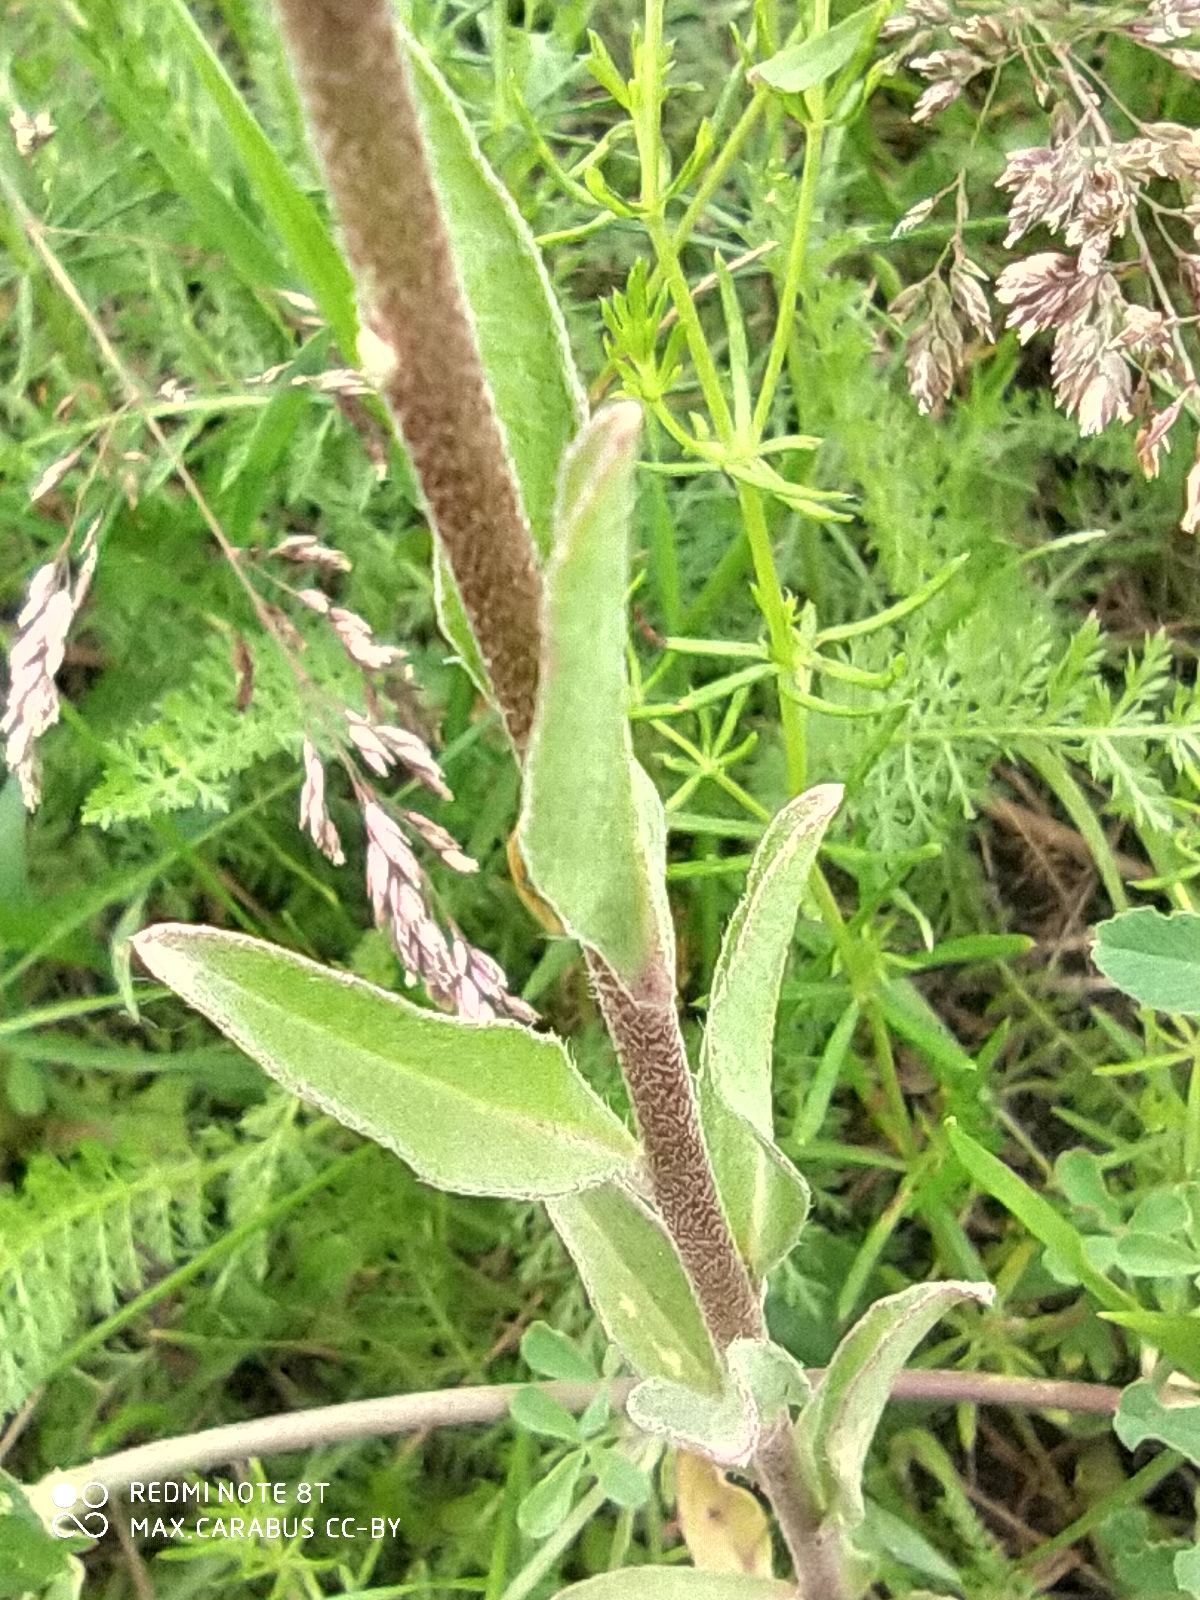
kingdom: Plantae
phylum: Tracheophyta
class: Magnoliopsida
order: Brassicales
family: Brassicaceae
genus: Berteroa
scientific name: Berteroa incana
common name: Hoary alison
